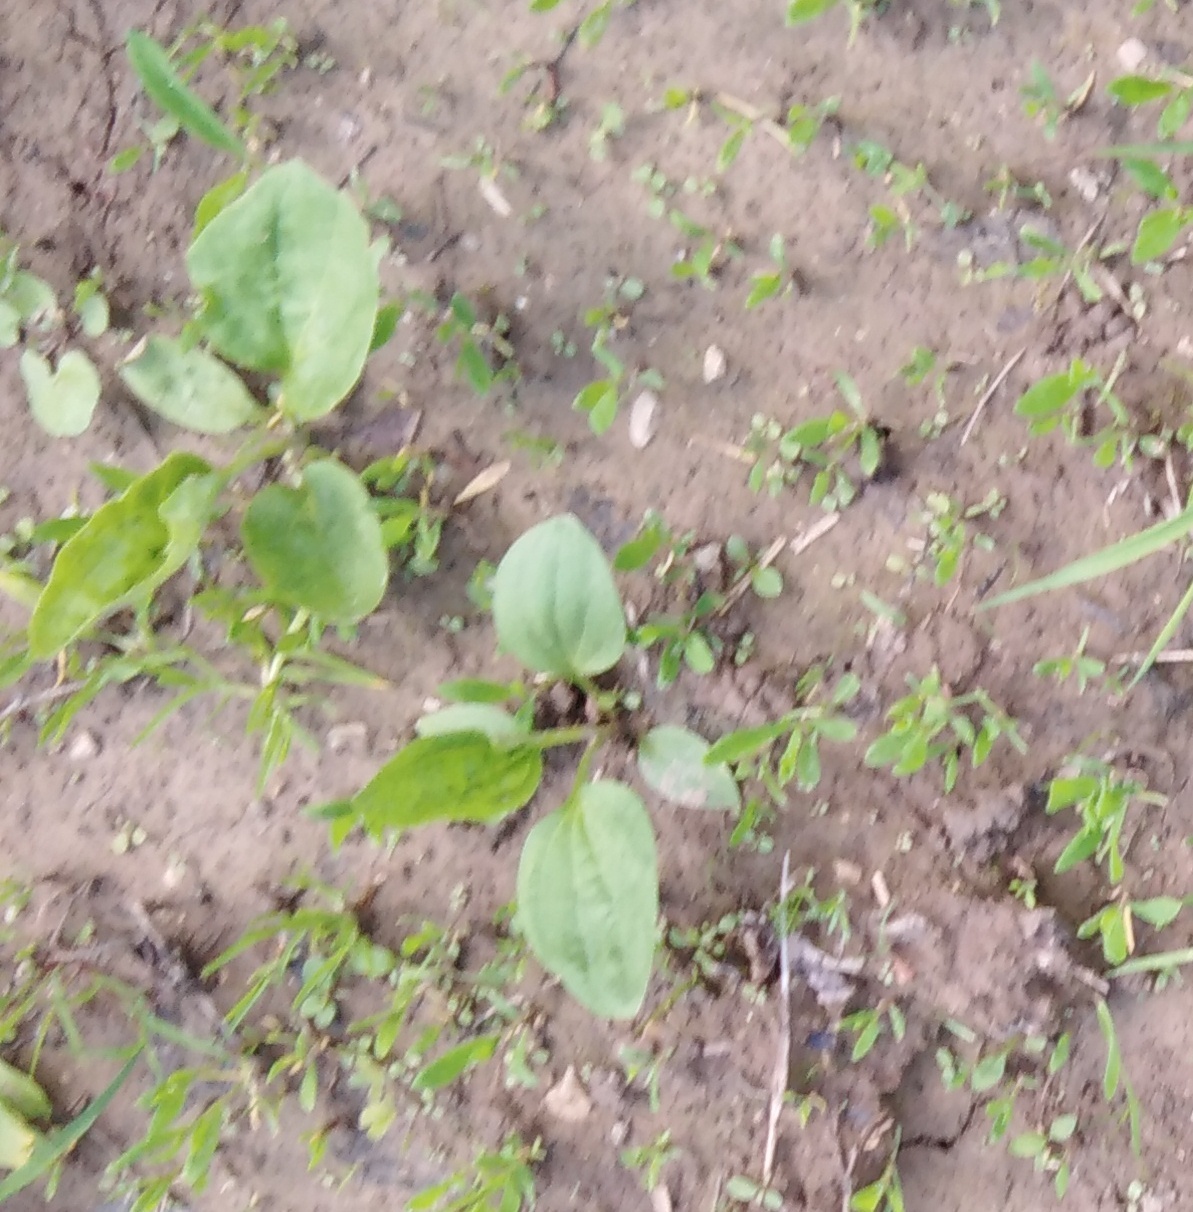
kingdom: Plantae
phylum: Tracheophyta
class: Magnoliopsida
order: Lamiales
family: Plantaginaceae
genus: Plantago
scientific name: Plantago major
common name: Common plantain
